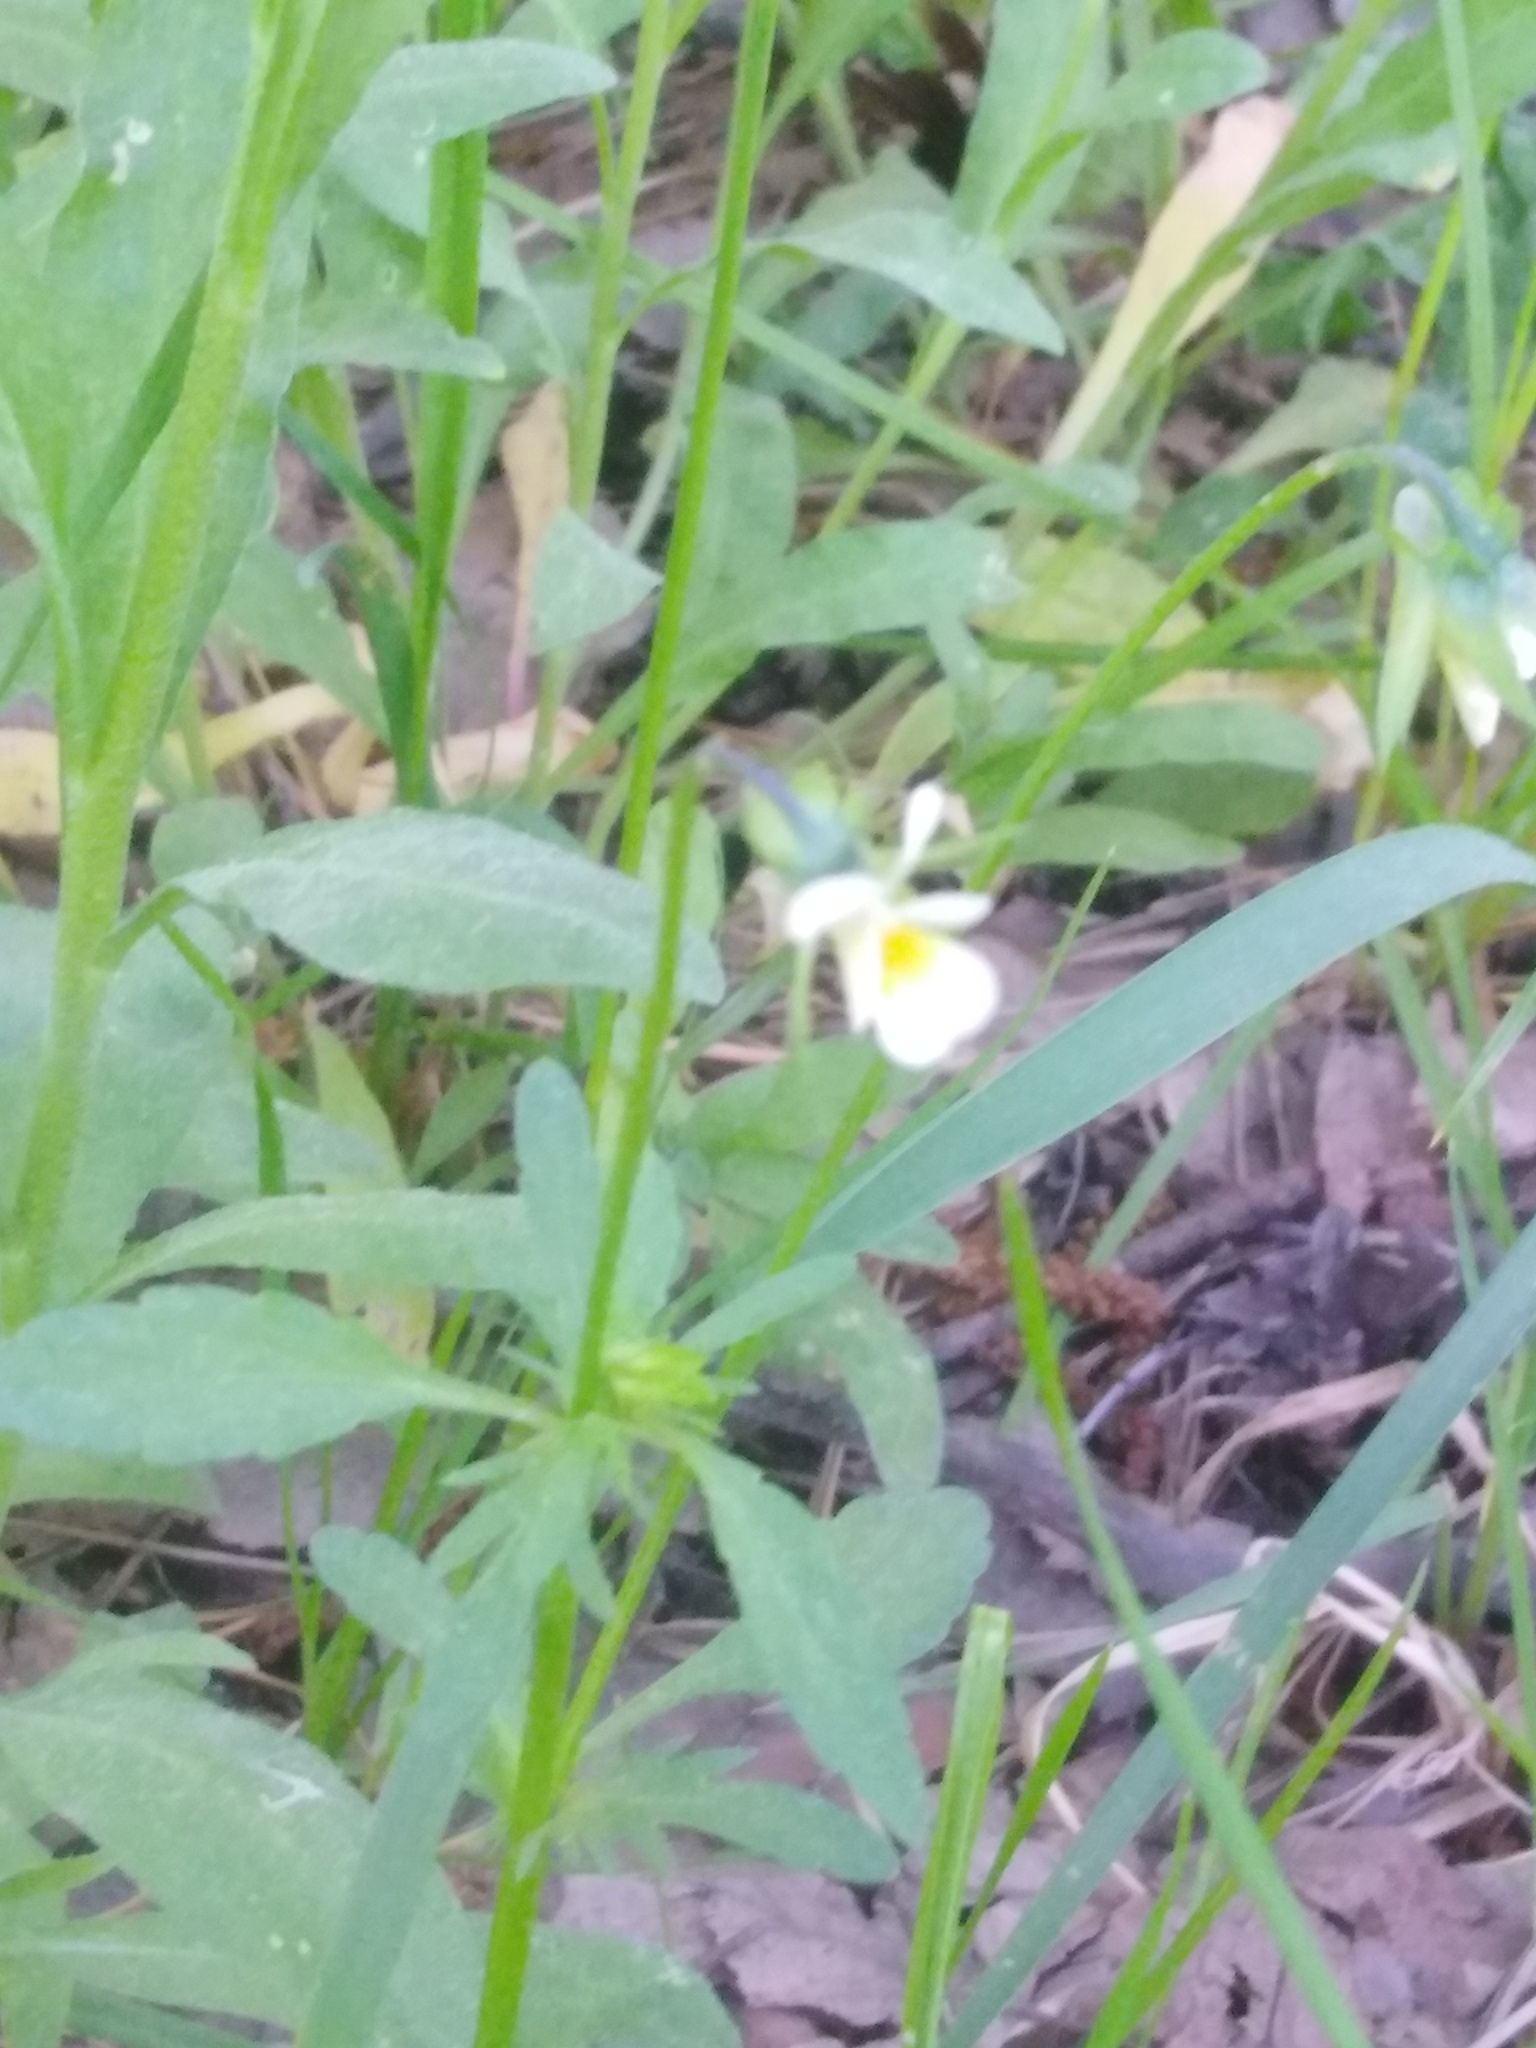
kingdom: Plantae
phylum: Tracheophyta
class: Magnoliopsida
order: Malpighiales
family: Violaceae
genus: Viola
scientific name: Viola arvensis
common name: Field pansy
